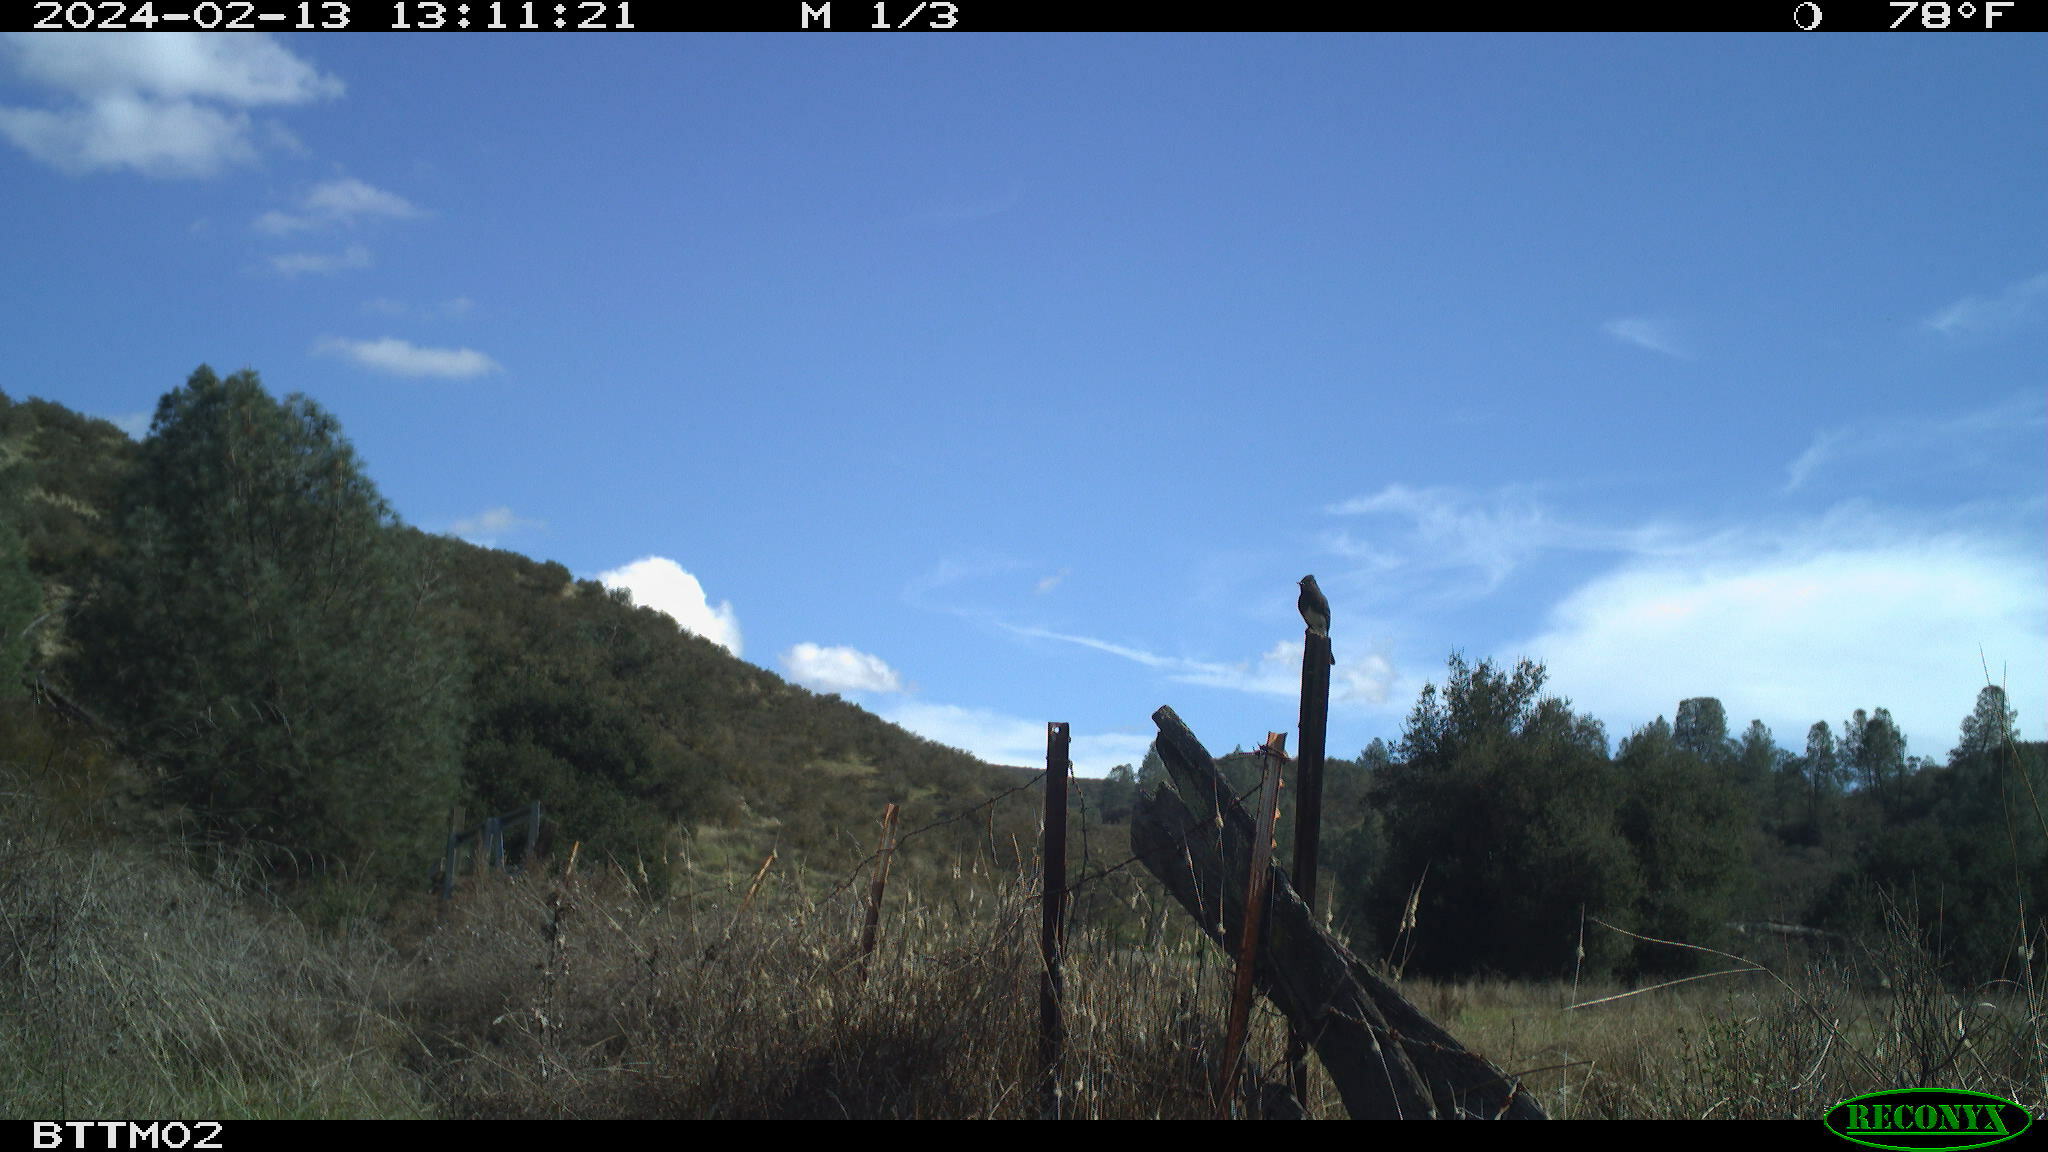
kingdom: Animalia
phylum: Chordata
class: Aves
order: Passeriformes
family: Tyrannidae
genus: Sayornis
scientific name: Sayornis nigricans
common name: Black phoebe
